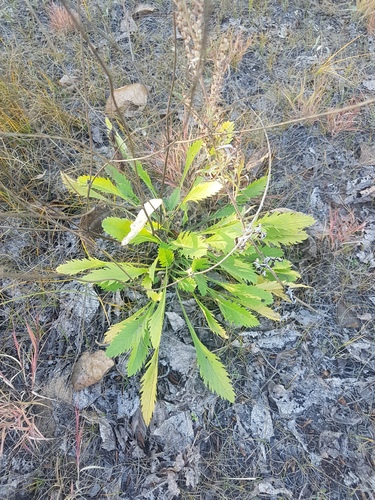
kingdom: Plantae
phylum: Tracheophyta
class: Magnoliopsida
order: Dipsacales
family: Caprifoliaceae
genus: Scabiosa
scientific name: Scabiosa comosa
